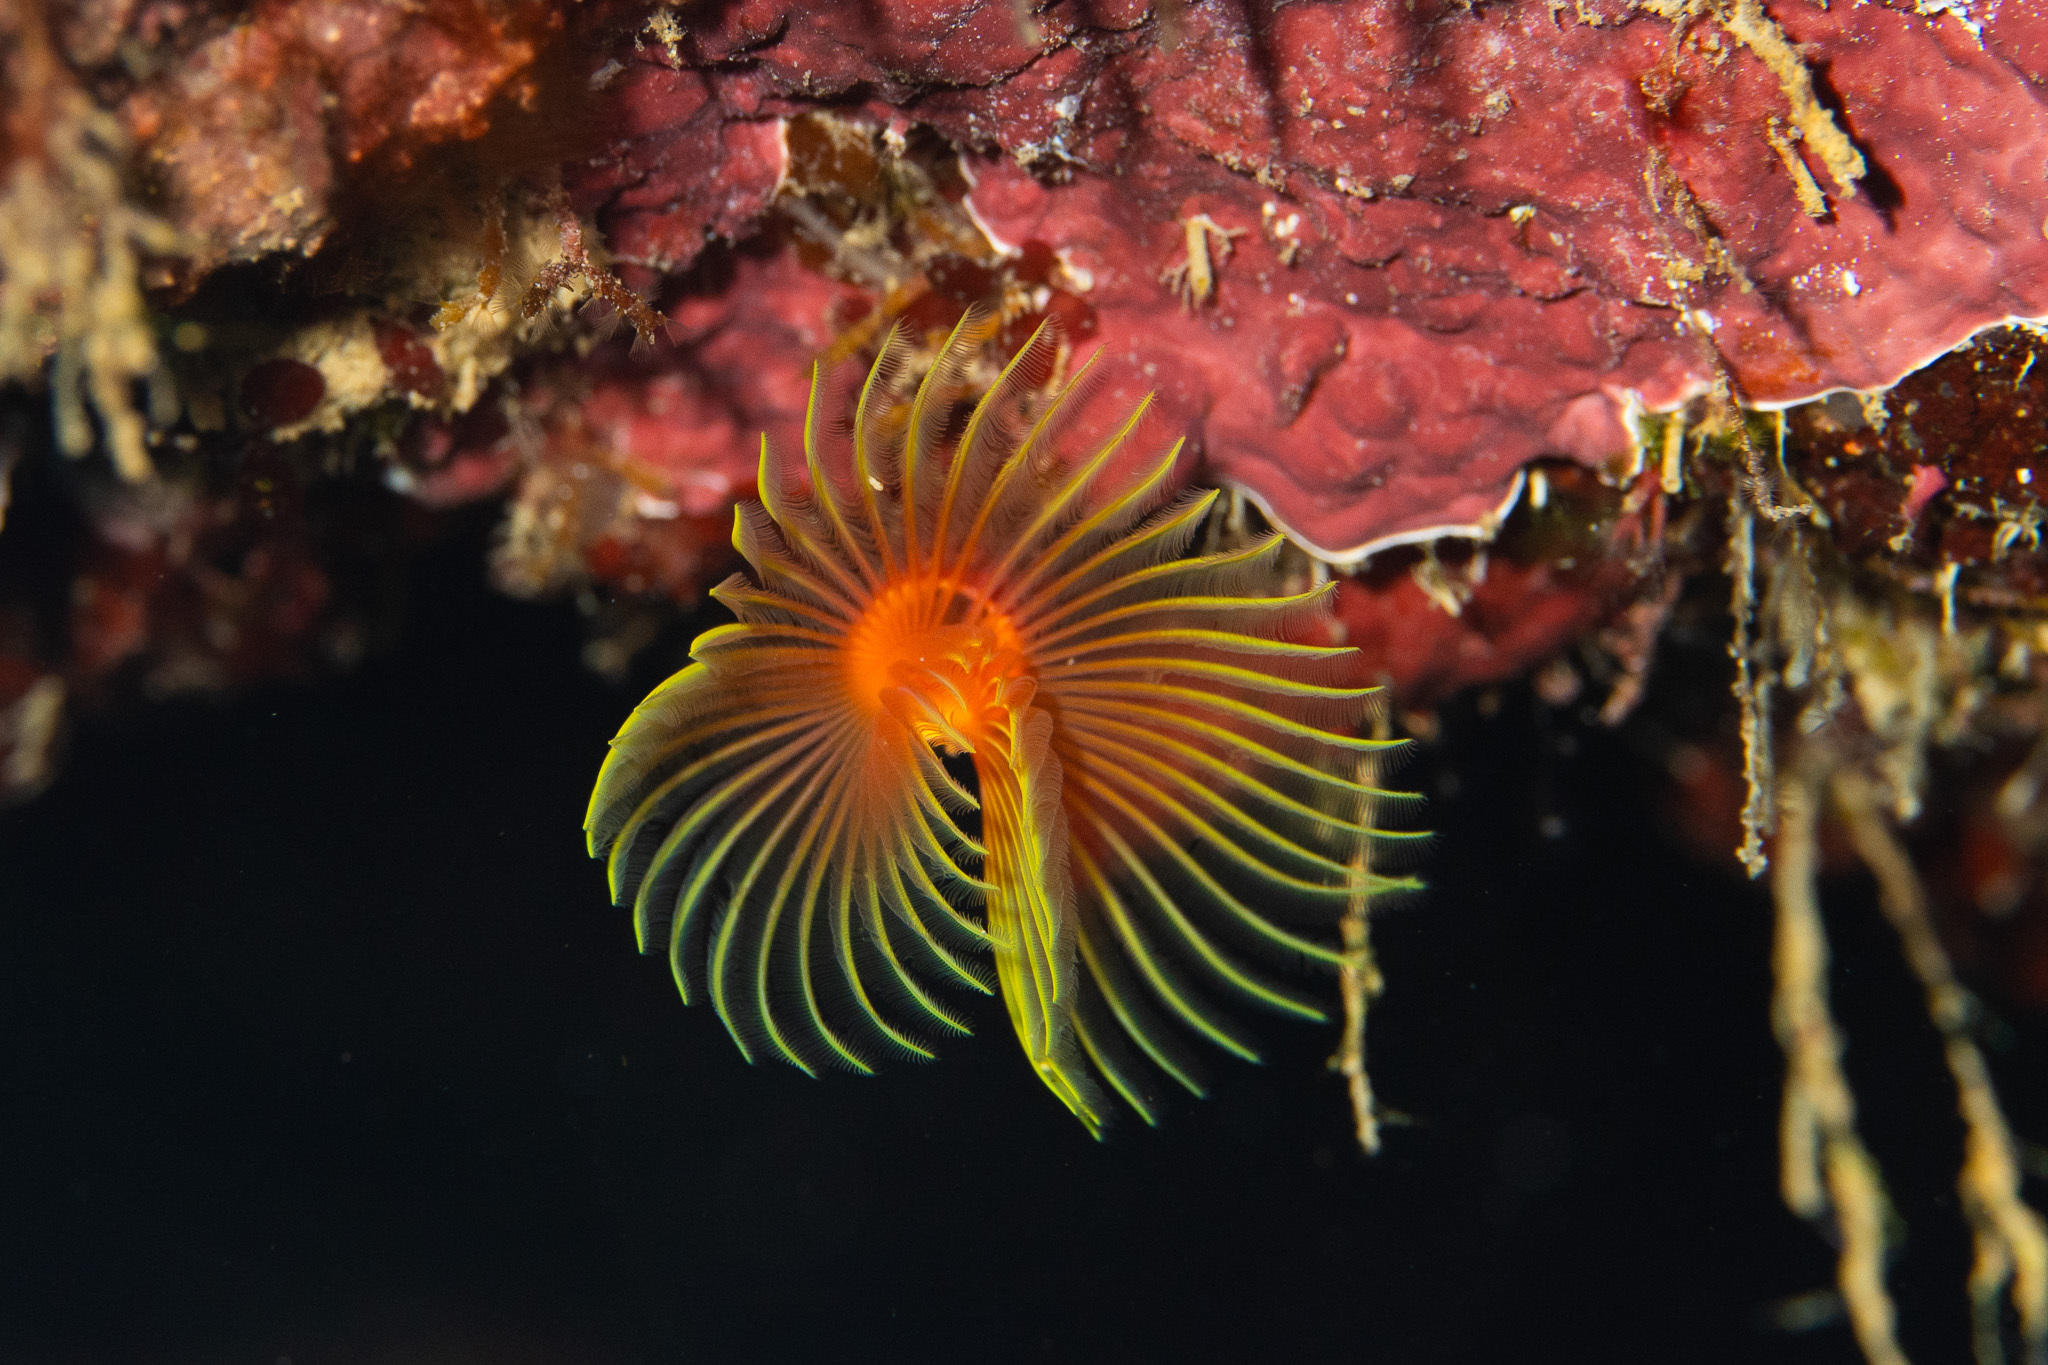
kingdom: Animalia
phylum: Annelida
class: Polychaeta
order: Sabellida
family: Serpulidae
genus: Pomatostegus
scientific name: Pomatostegus stellatus
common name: Star tubeworm
